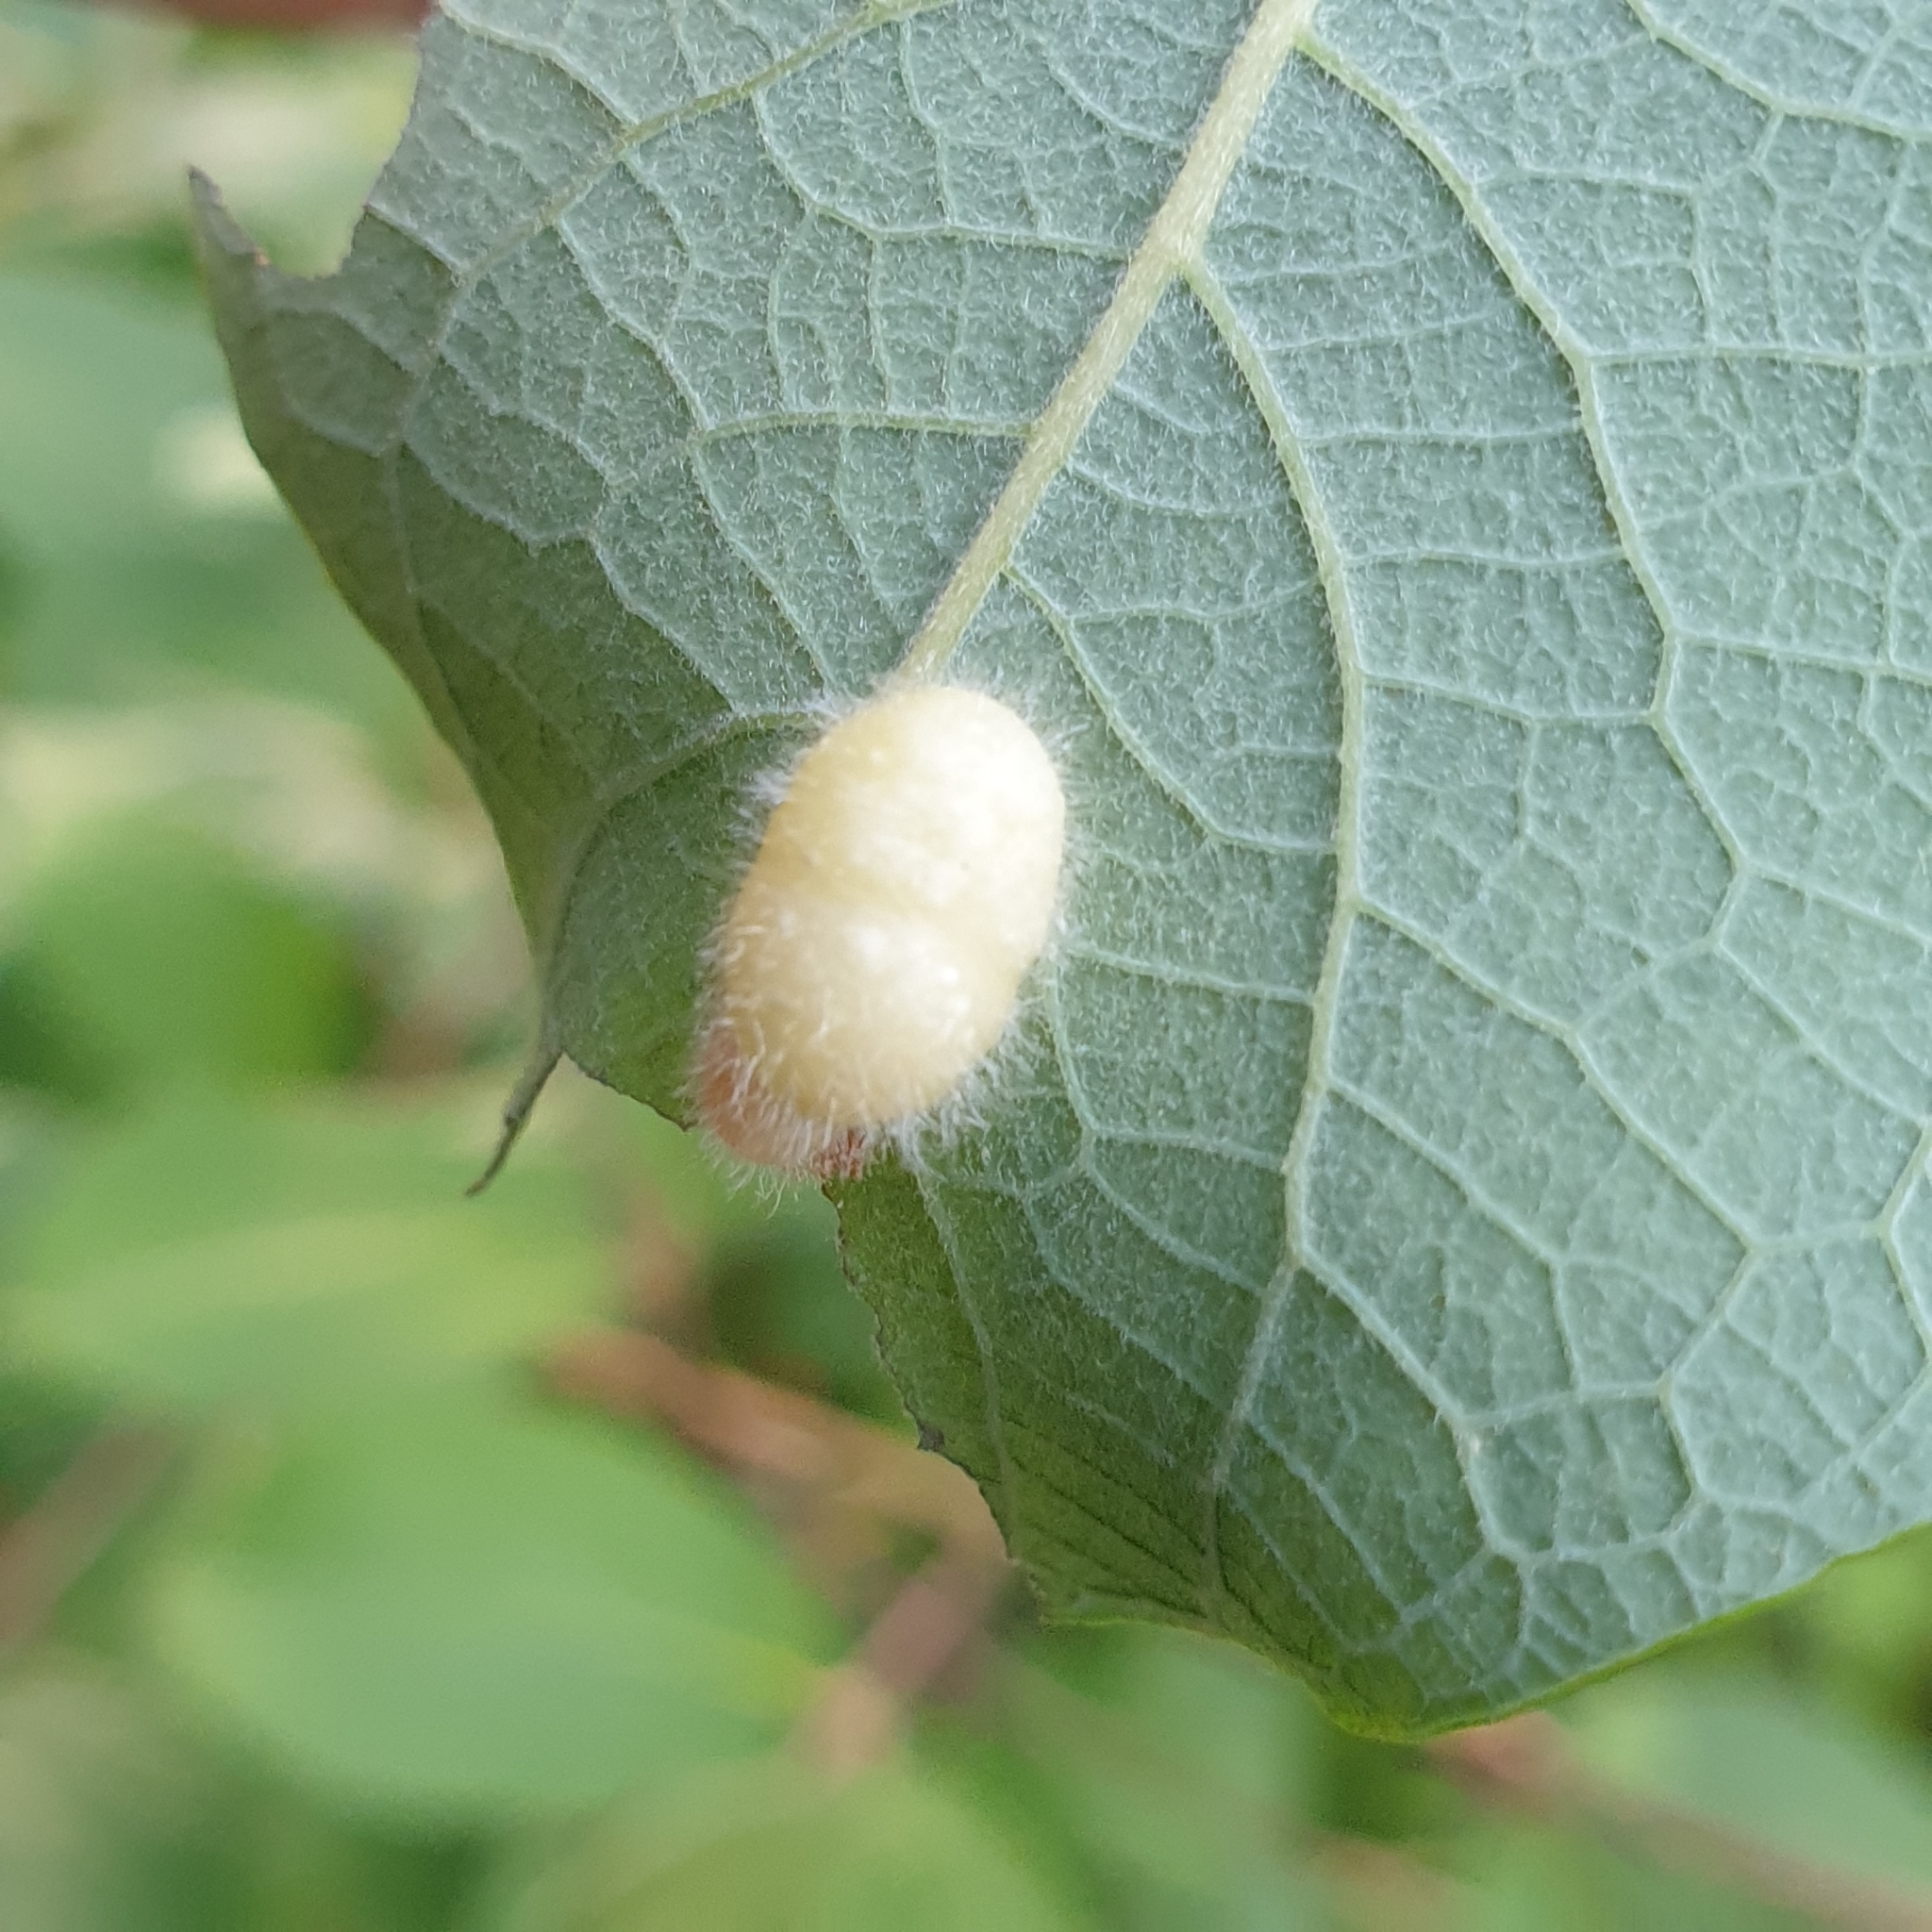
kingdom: Animalia
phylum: Arthropoda
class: Insecta
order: Hymenoptera
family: Tenthredinidae
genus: Pontania
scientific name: Pontania pedunculi
